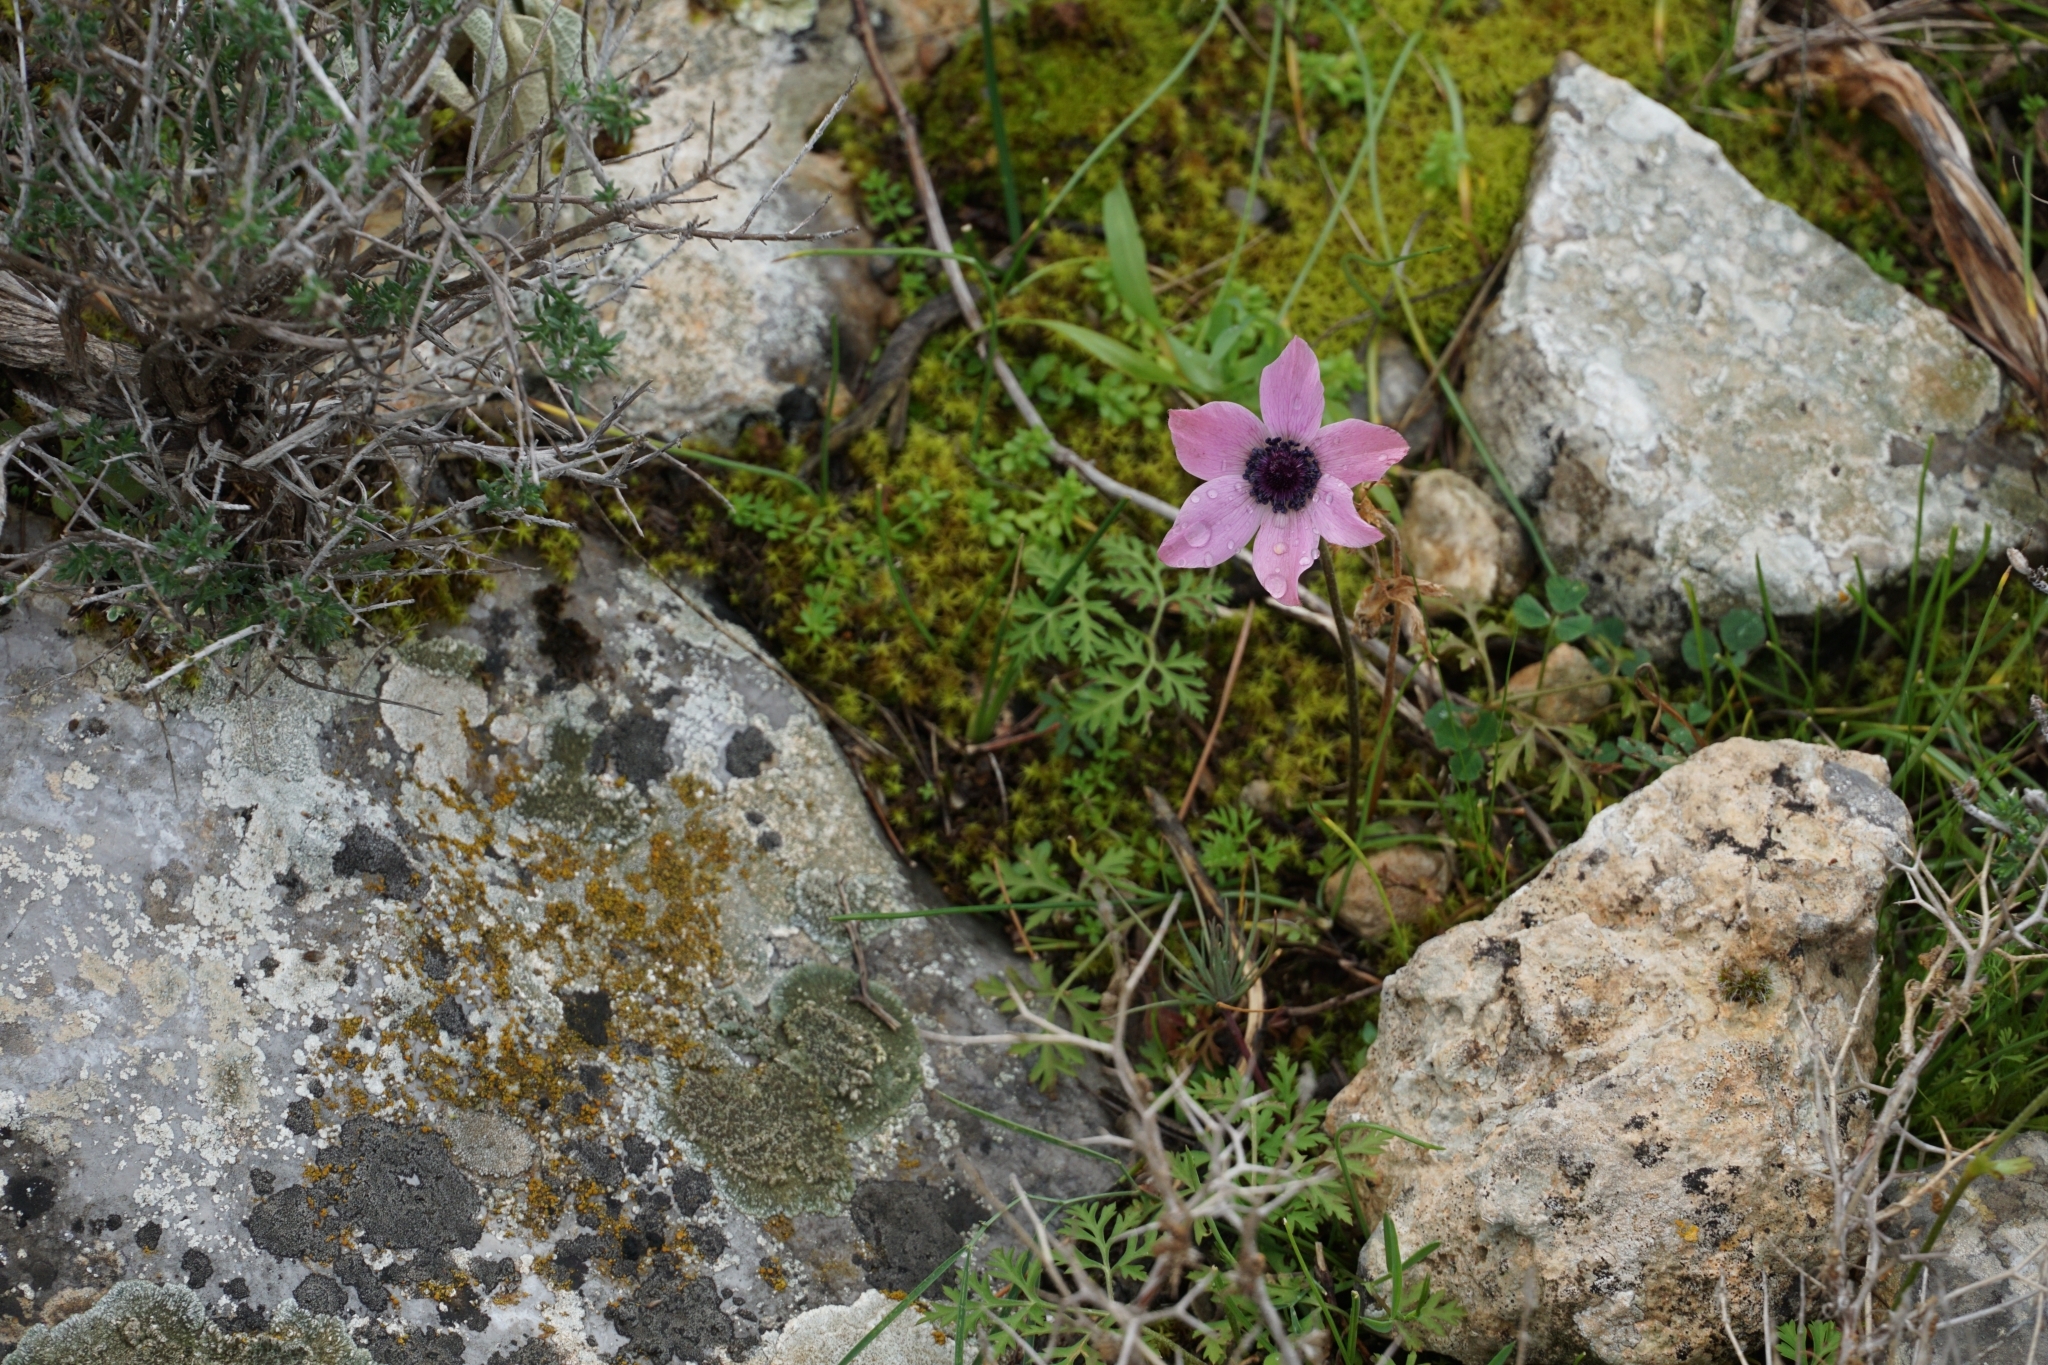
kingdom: Plantae
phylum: Tracheophyta
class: Magnoliopsida
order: Ranunculales
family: Ranunculaceae
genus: Anemone
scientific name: Anemone coronaria
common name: Poppy anemone
